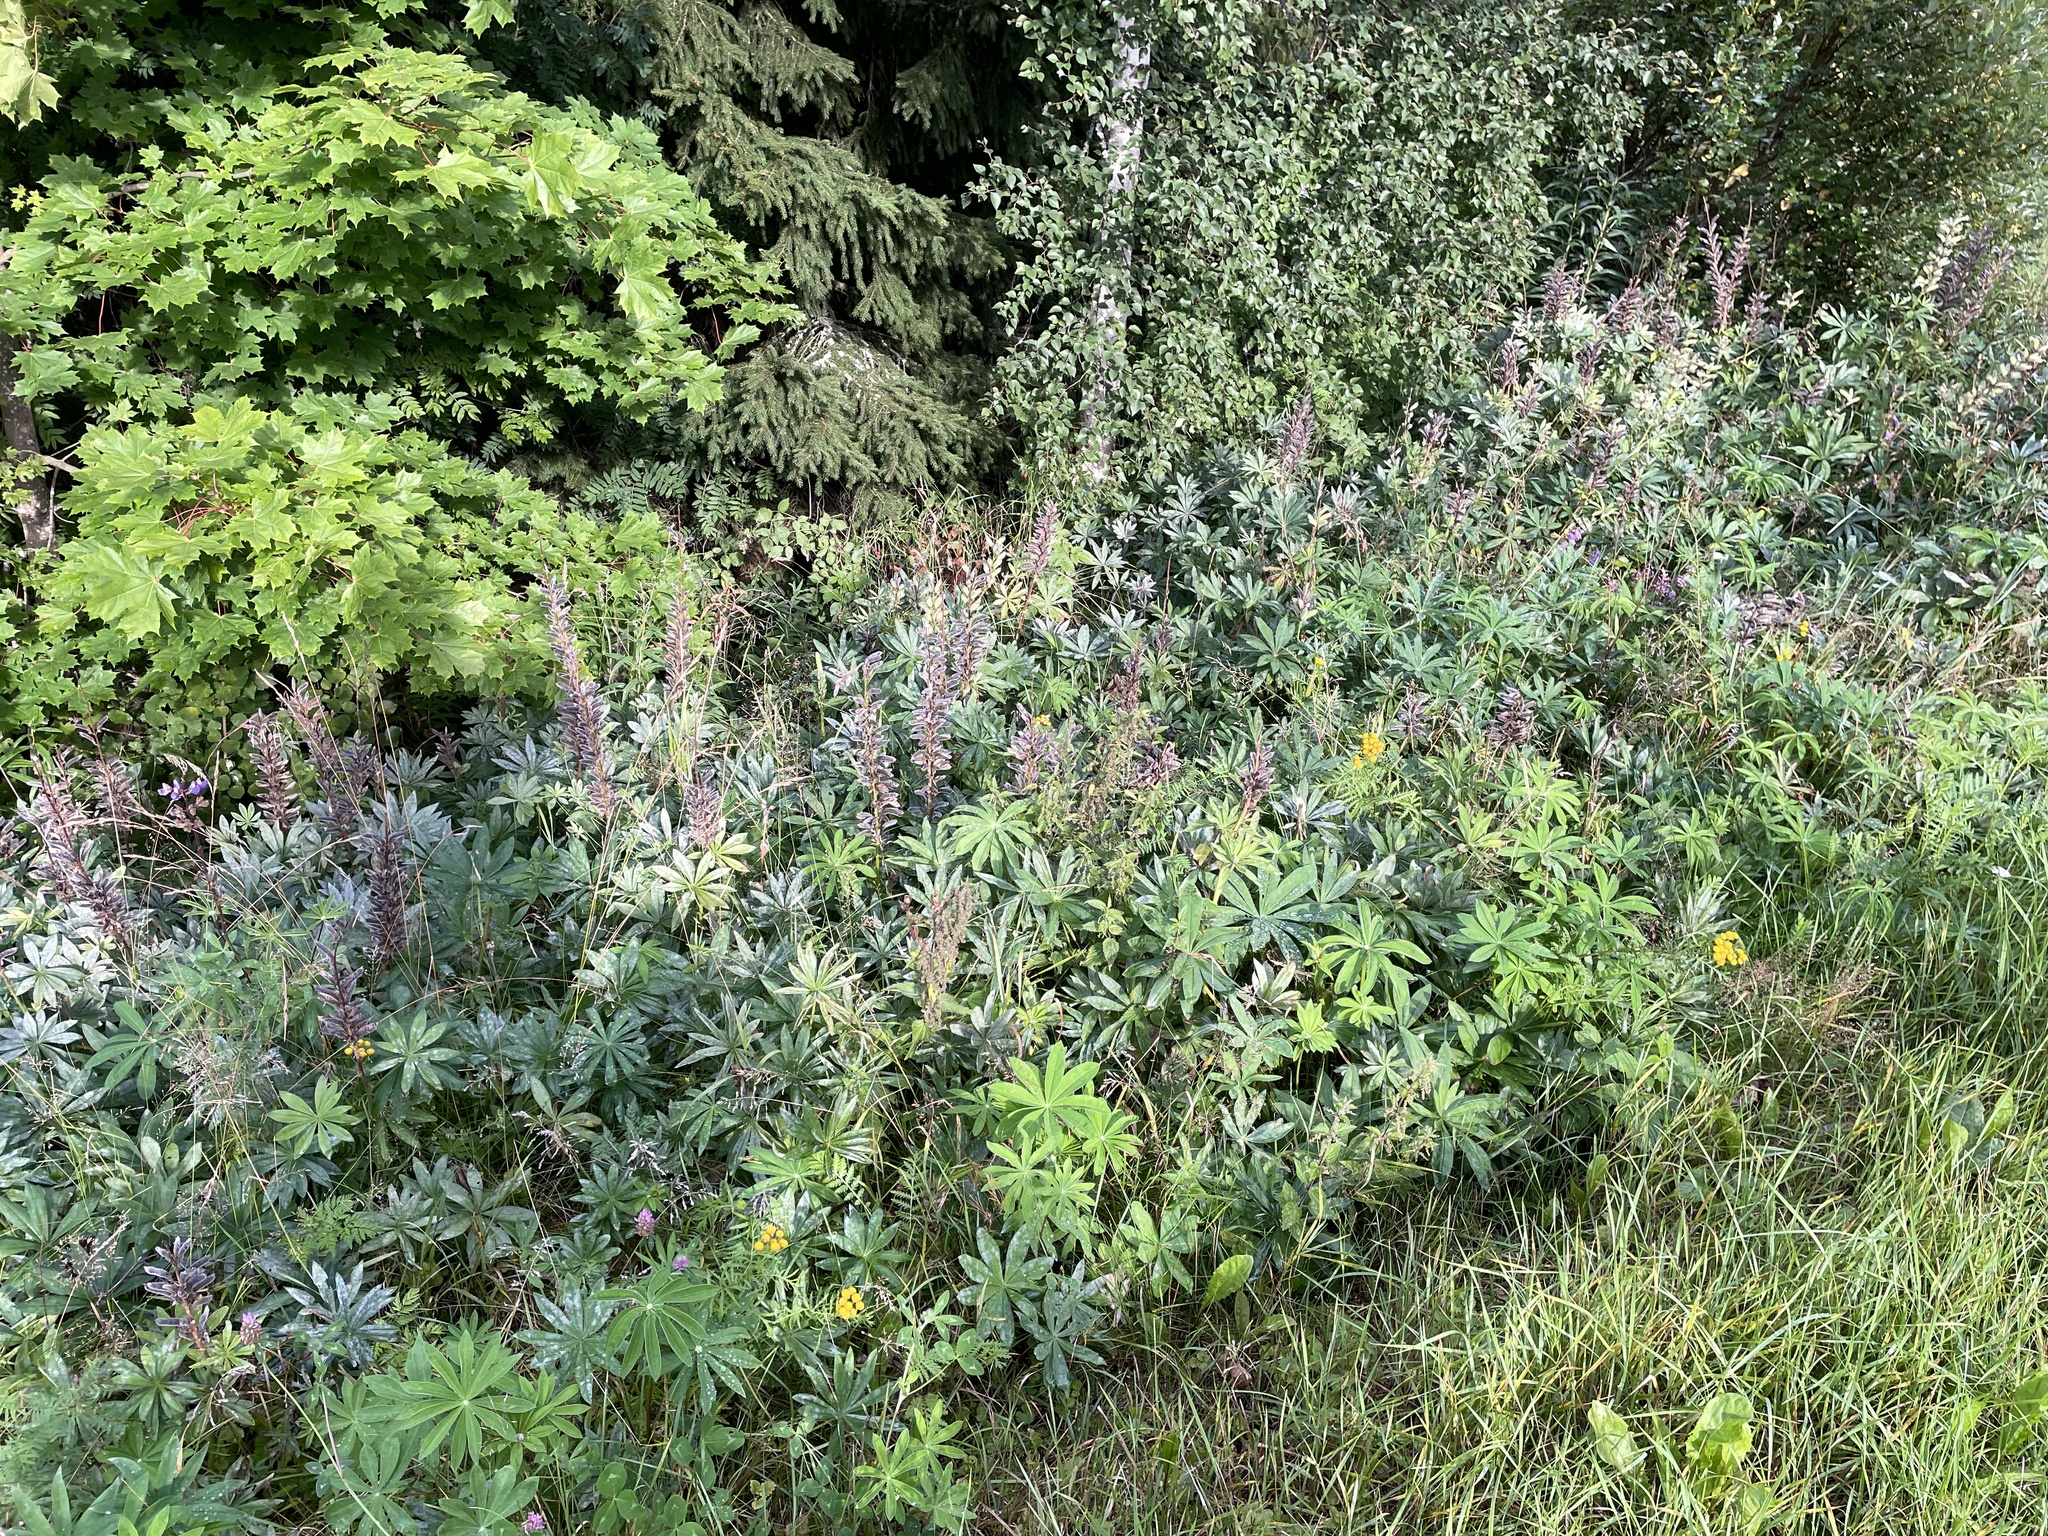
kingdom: Plantae
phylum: Tracheophyta
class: Magnoliopsida
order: Fabales
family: Fabaceae
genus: Lupinus
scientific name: Lupinus polyphyllus
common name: Garden lupin
